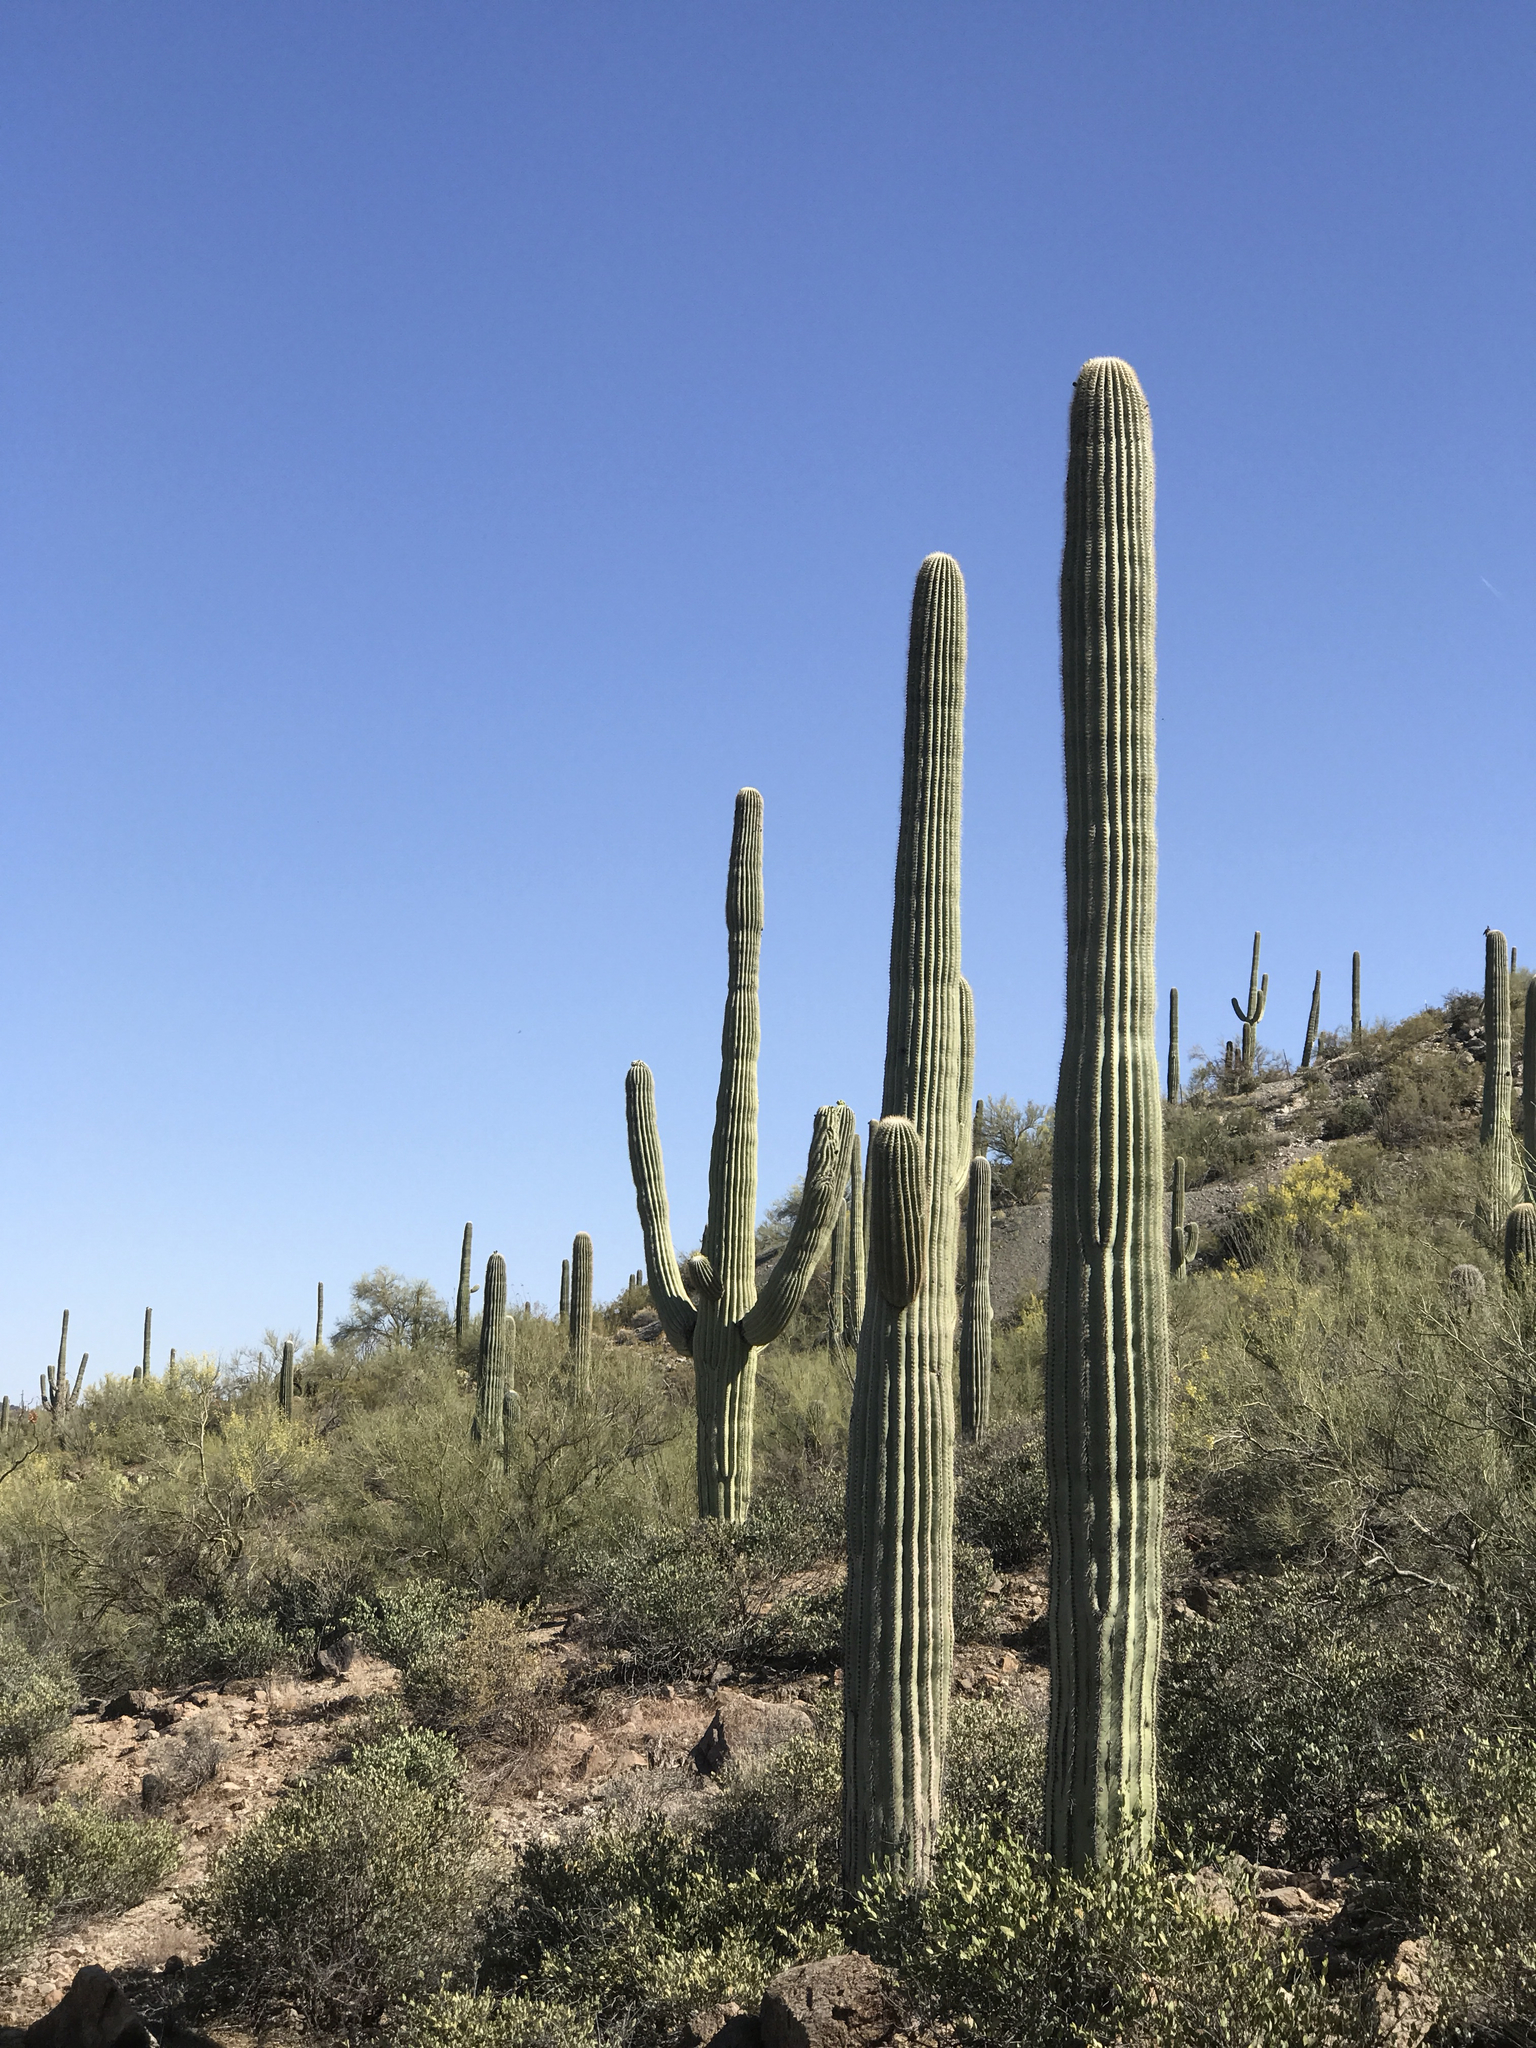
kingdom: Plantae
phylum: Tracheophyta
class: Magnoliopsida
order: Caryophyllales
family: Cactaceae
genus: Carnegiea
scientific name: Carnegiea gigantea
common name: Saguaro
